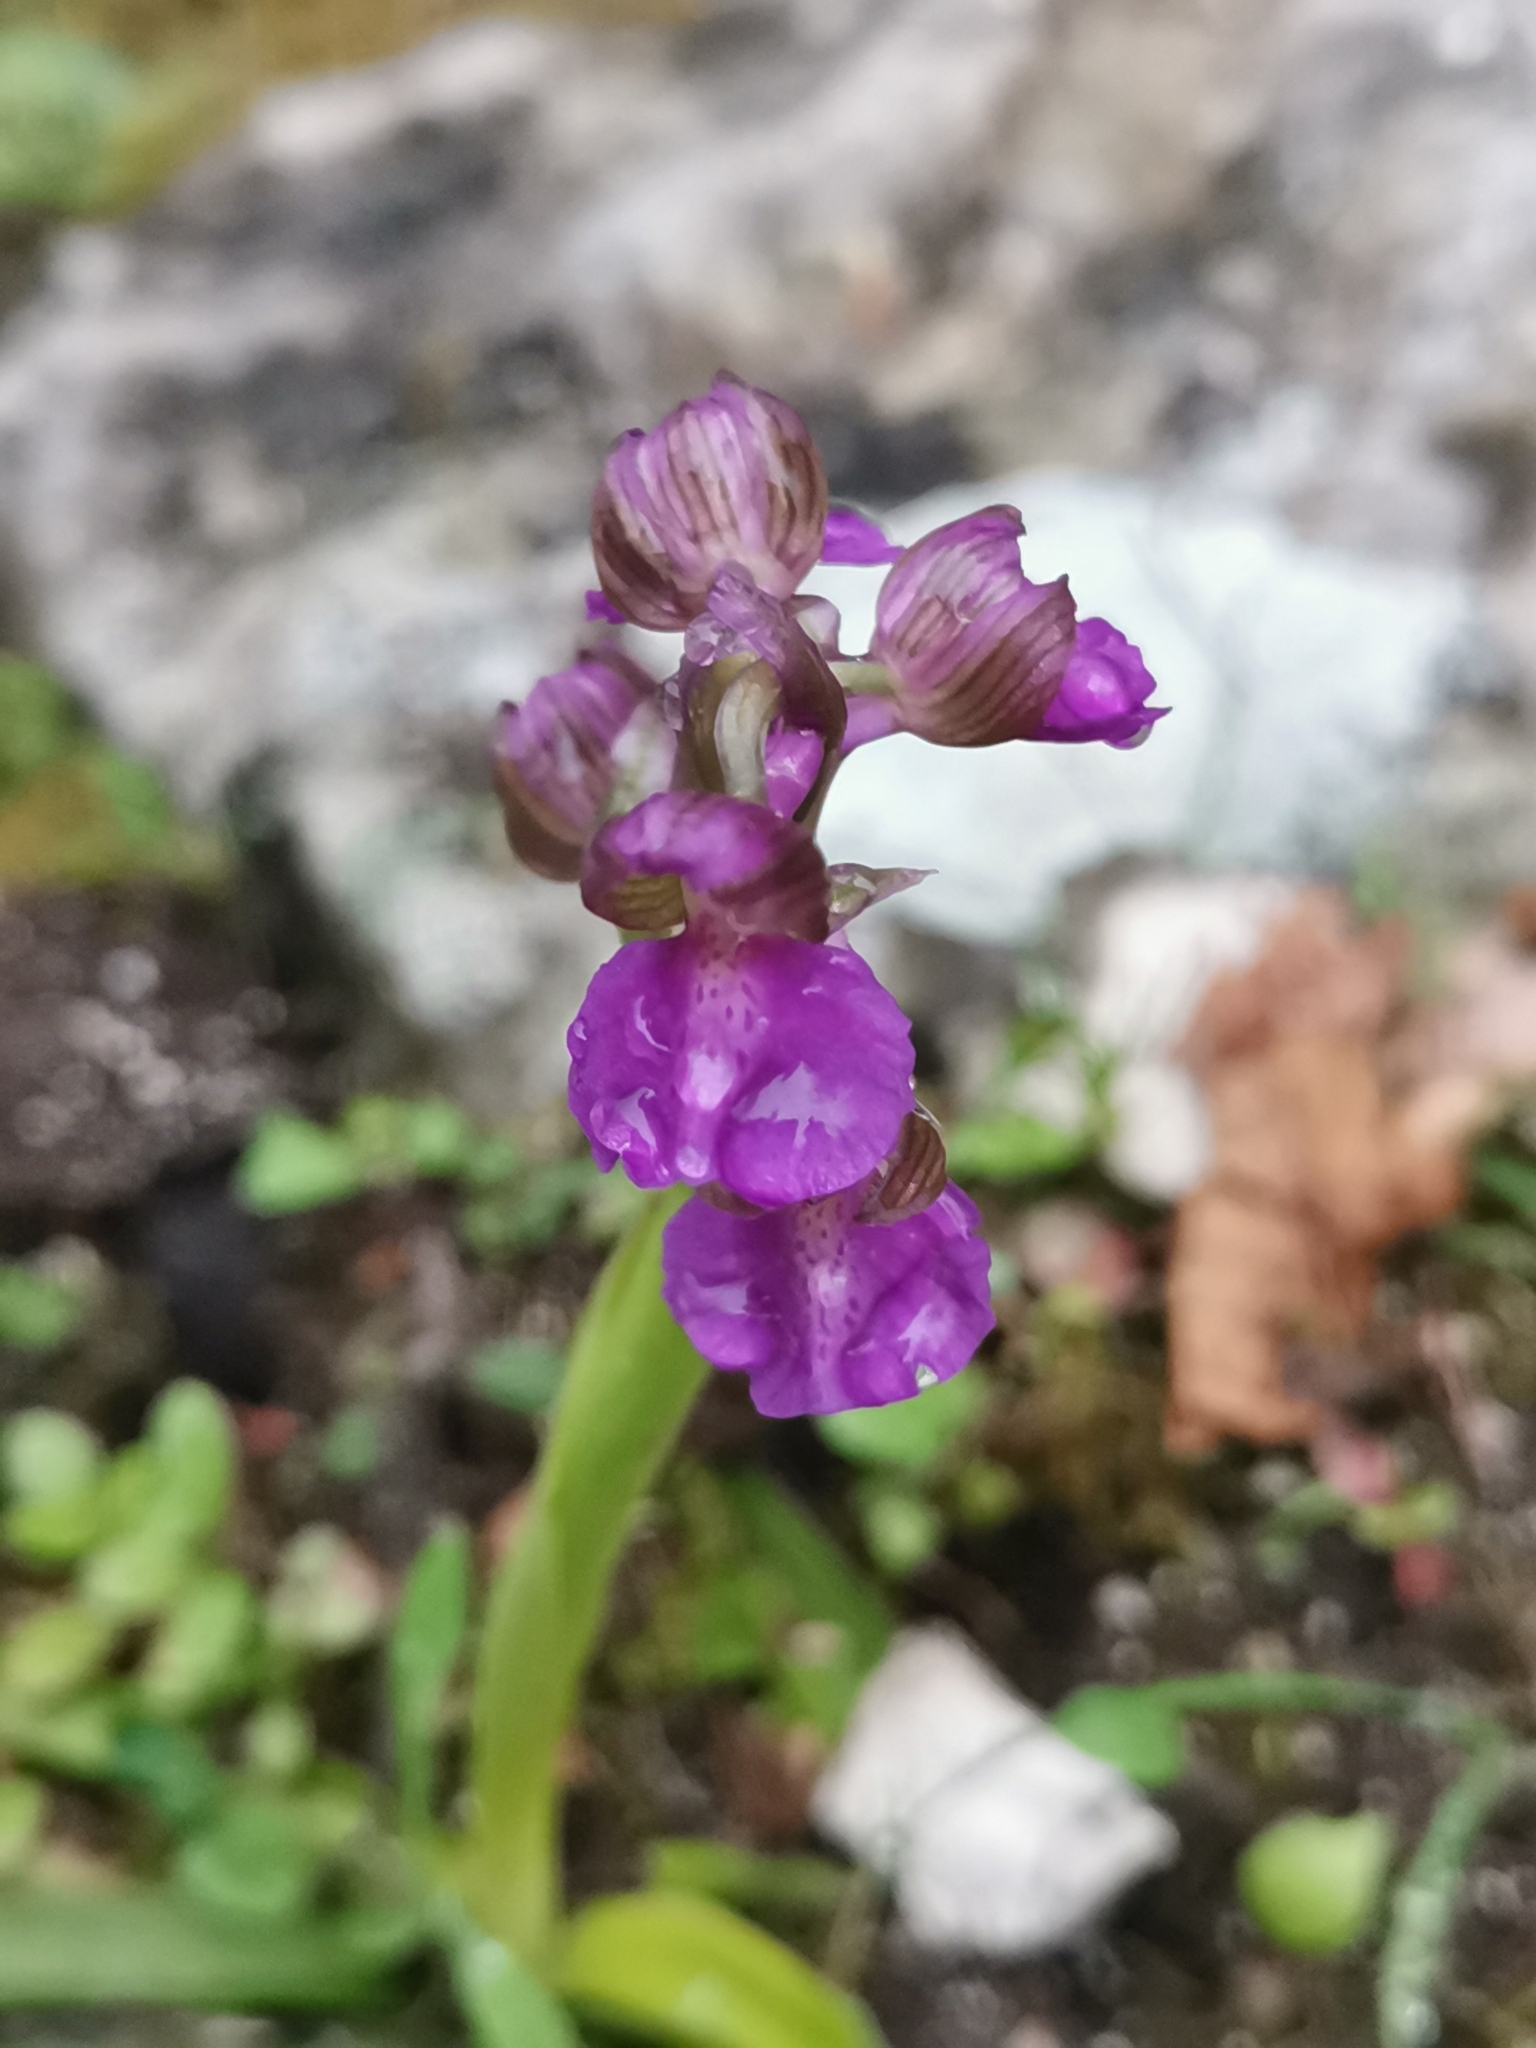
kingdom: Plantae
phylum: Tracheophyta
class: Liliopsida
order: Asparagales
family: Orchidaceae
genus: Anacamptis
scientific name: Anacamptis morio
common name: Green-winged orchid
